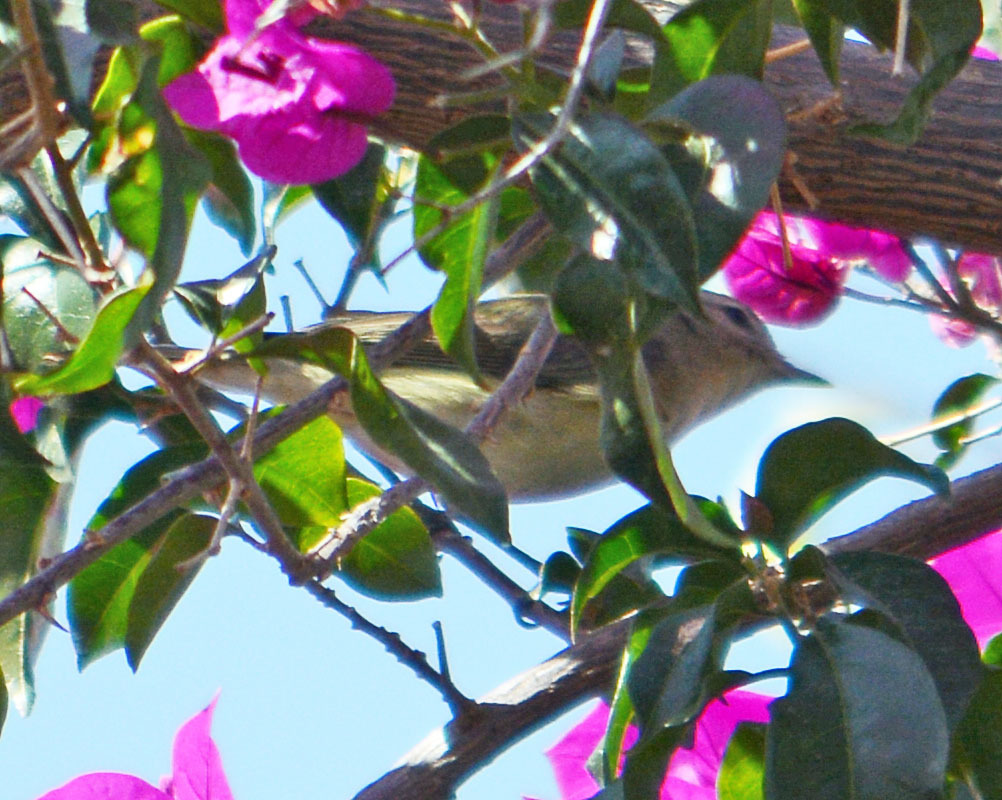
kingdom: Animalia
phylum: Chordata
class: Aves
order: Passeriformes
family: Vireonidae
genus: Vireo
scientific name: Vireo gilvus
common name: Warbling vireo
